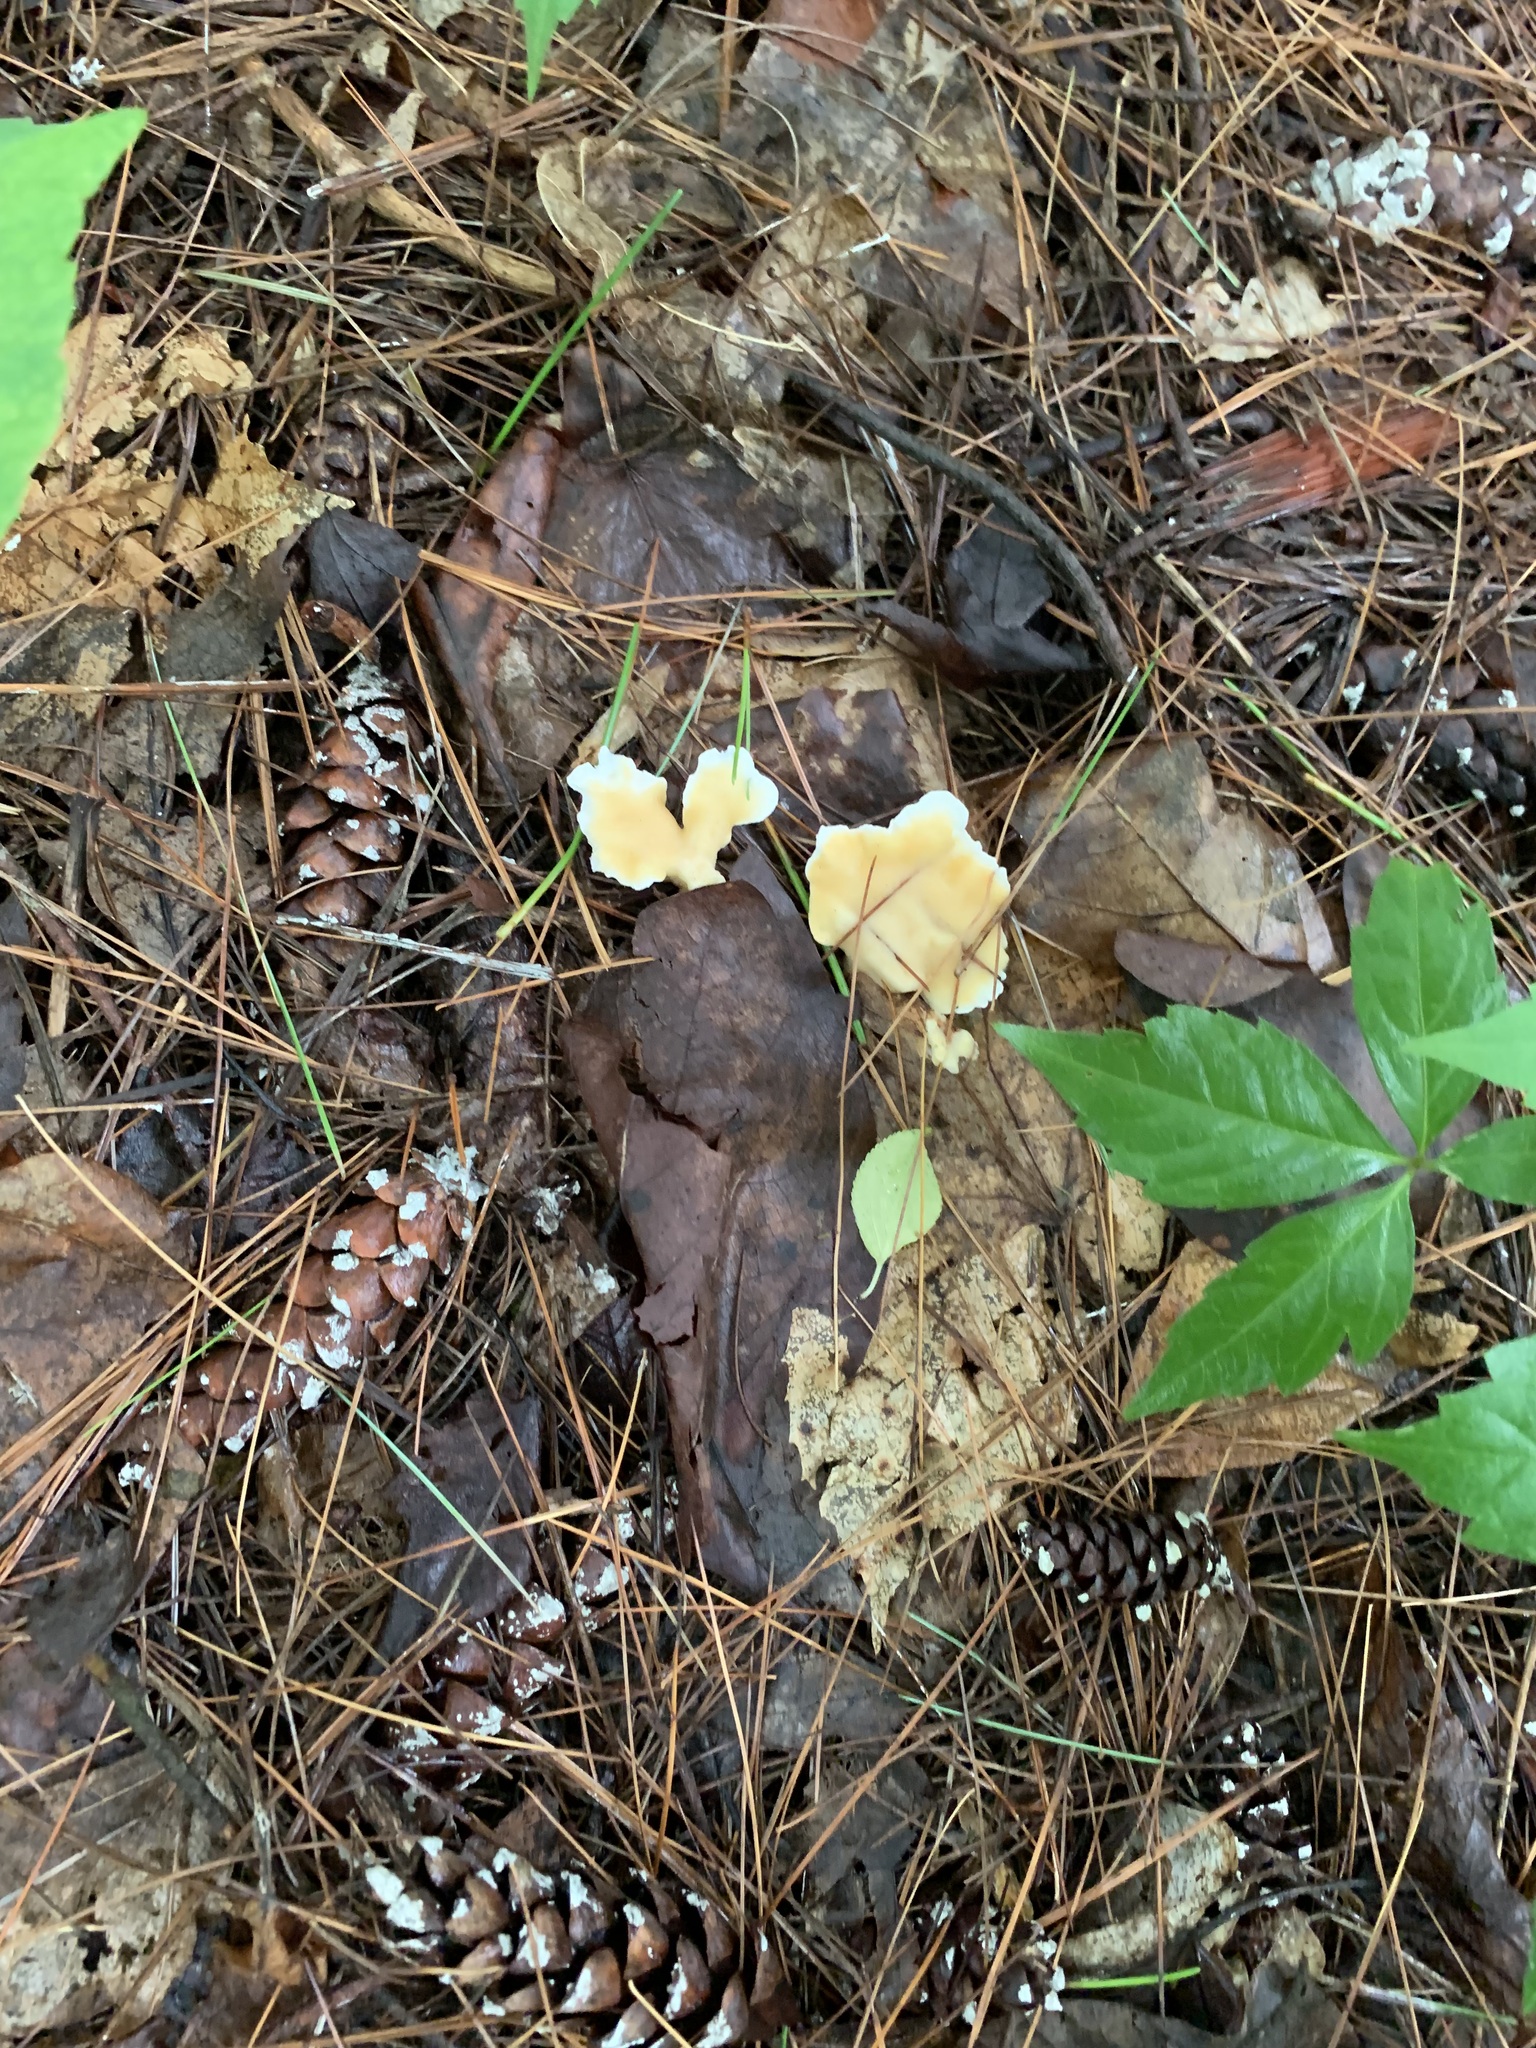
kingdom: Fungi
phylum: Basidiomycota
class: Agaricomycetes
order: Polyporales
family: Steccherinaceae
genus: Loweomyces
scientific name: Loweomyces fractipes
